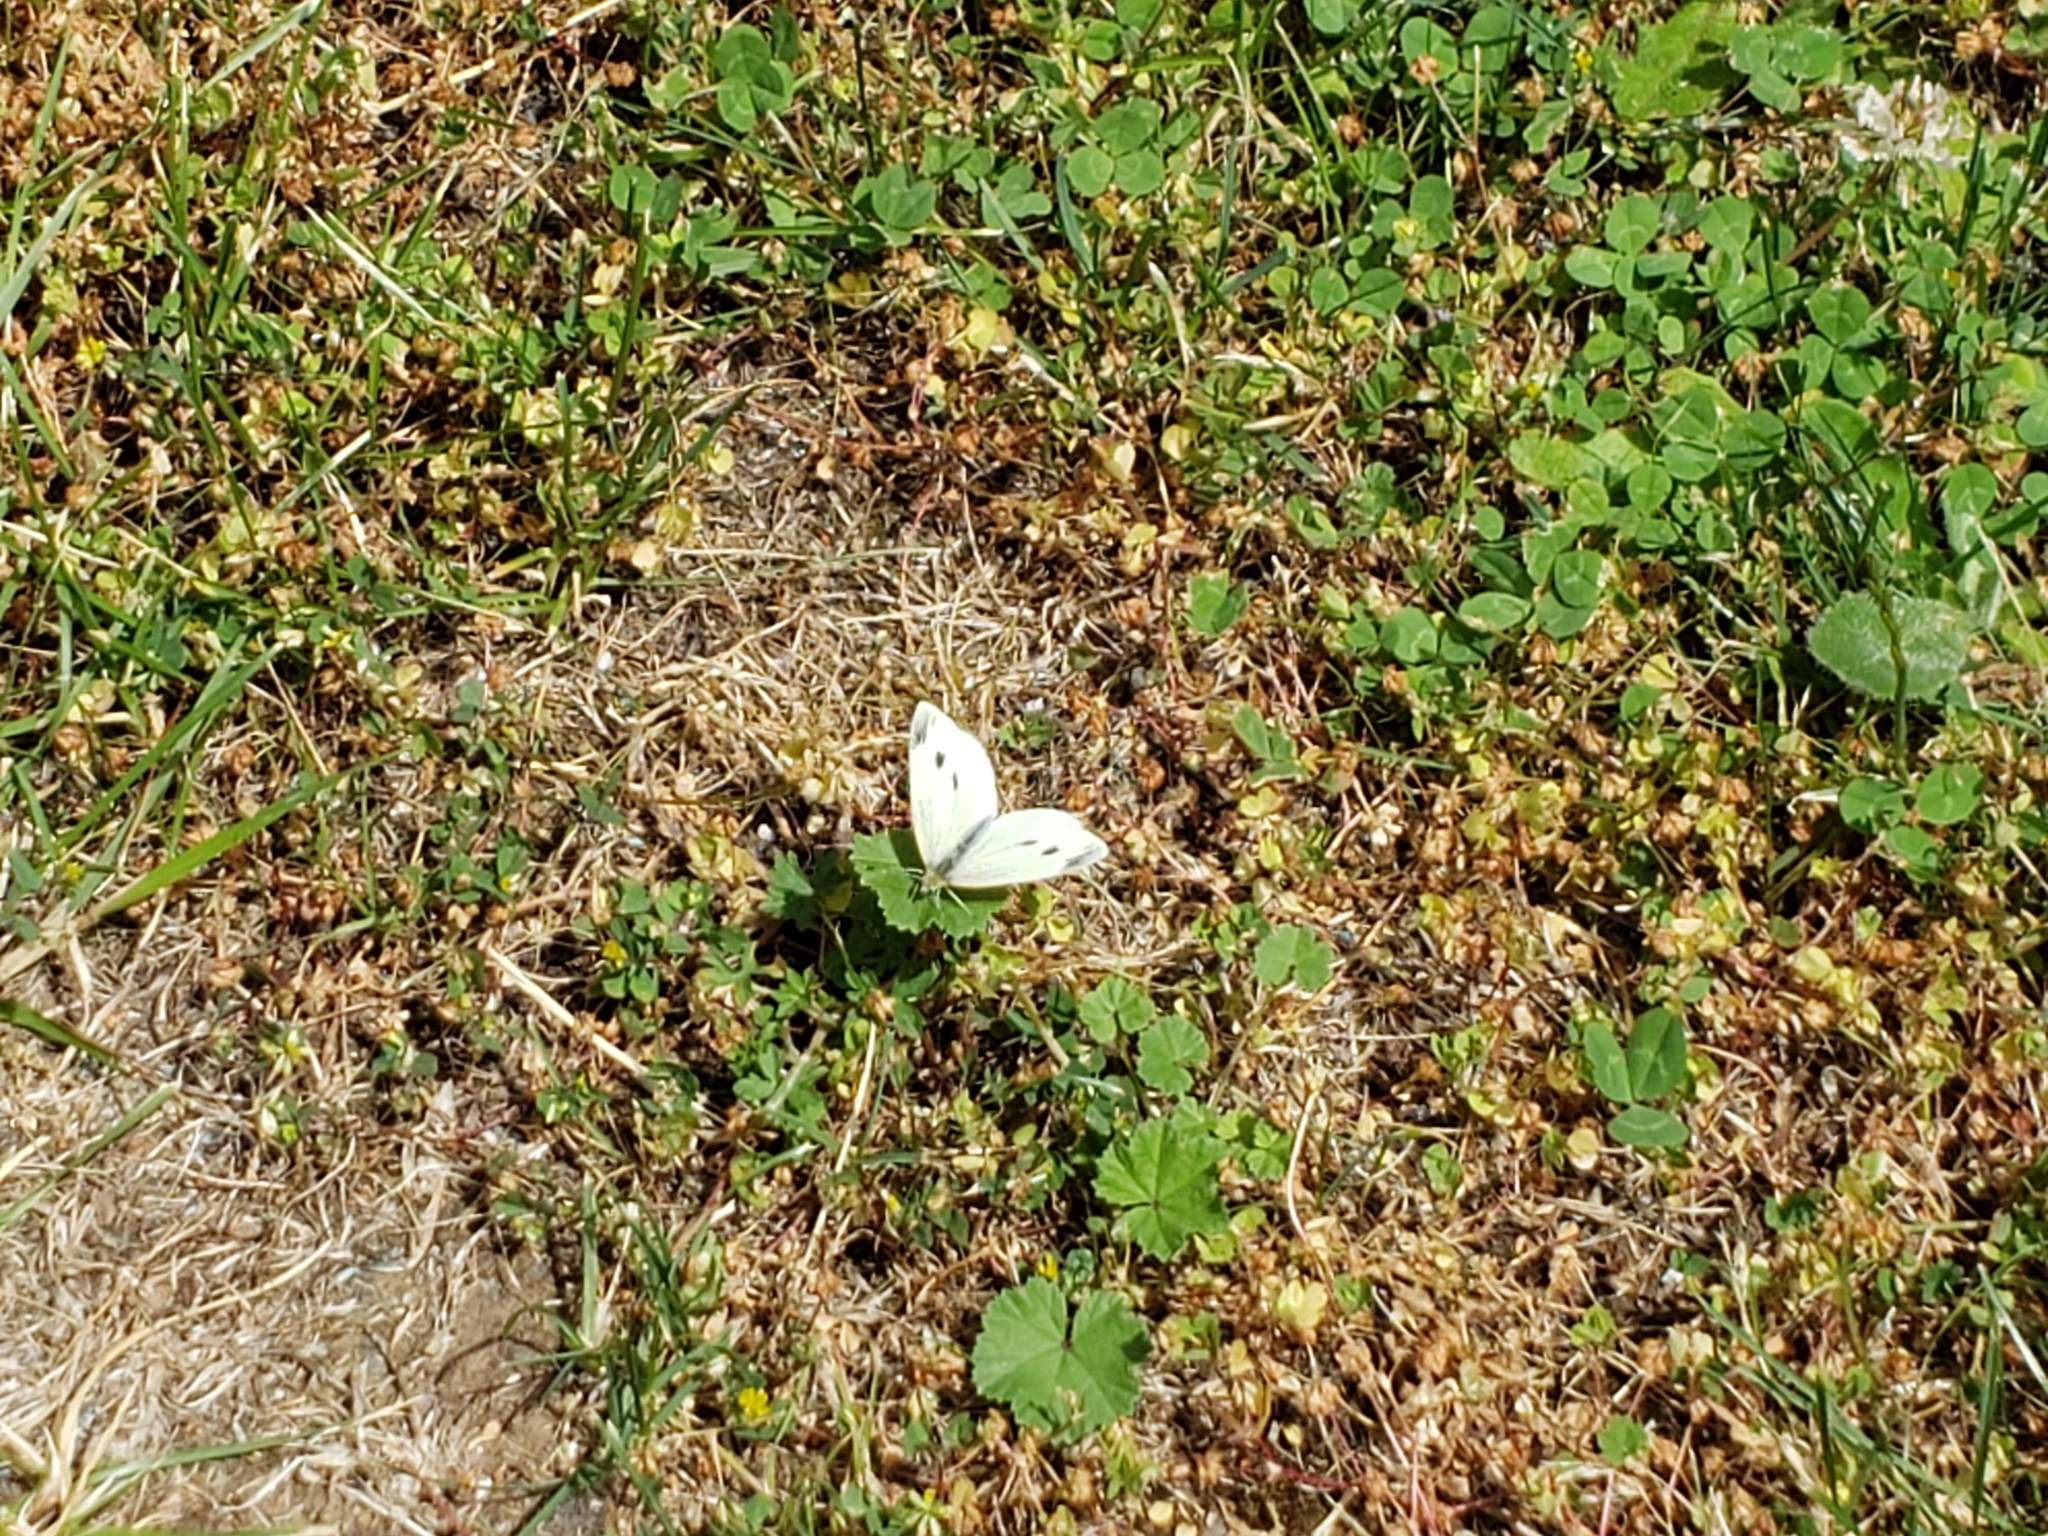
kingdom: Animalia
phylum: Arthropoda
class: Insecta
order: Lepidoptera
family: Pieridae
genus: Pieris
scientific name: Pieris rapae
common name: Small white
